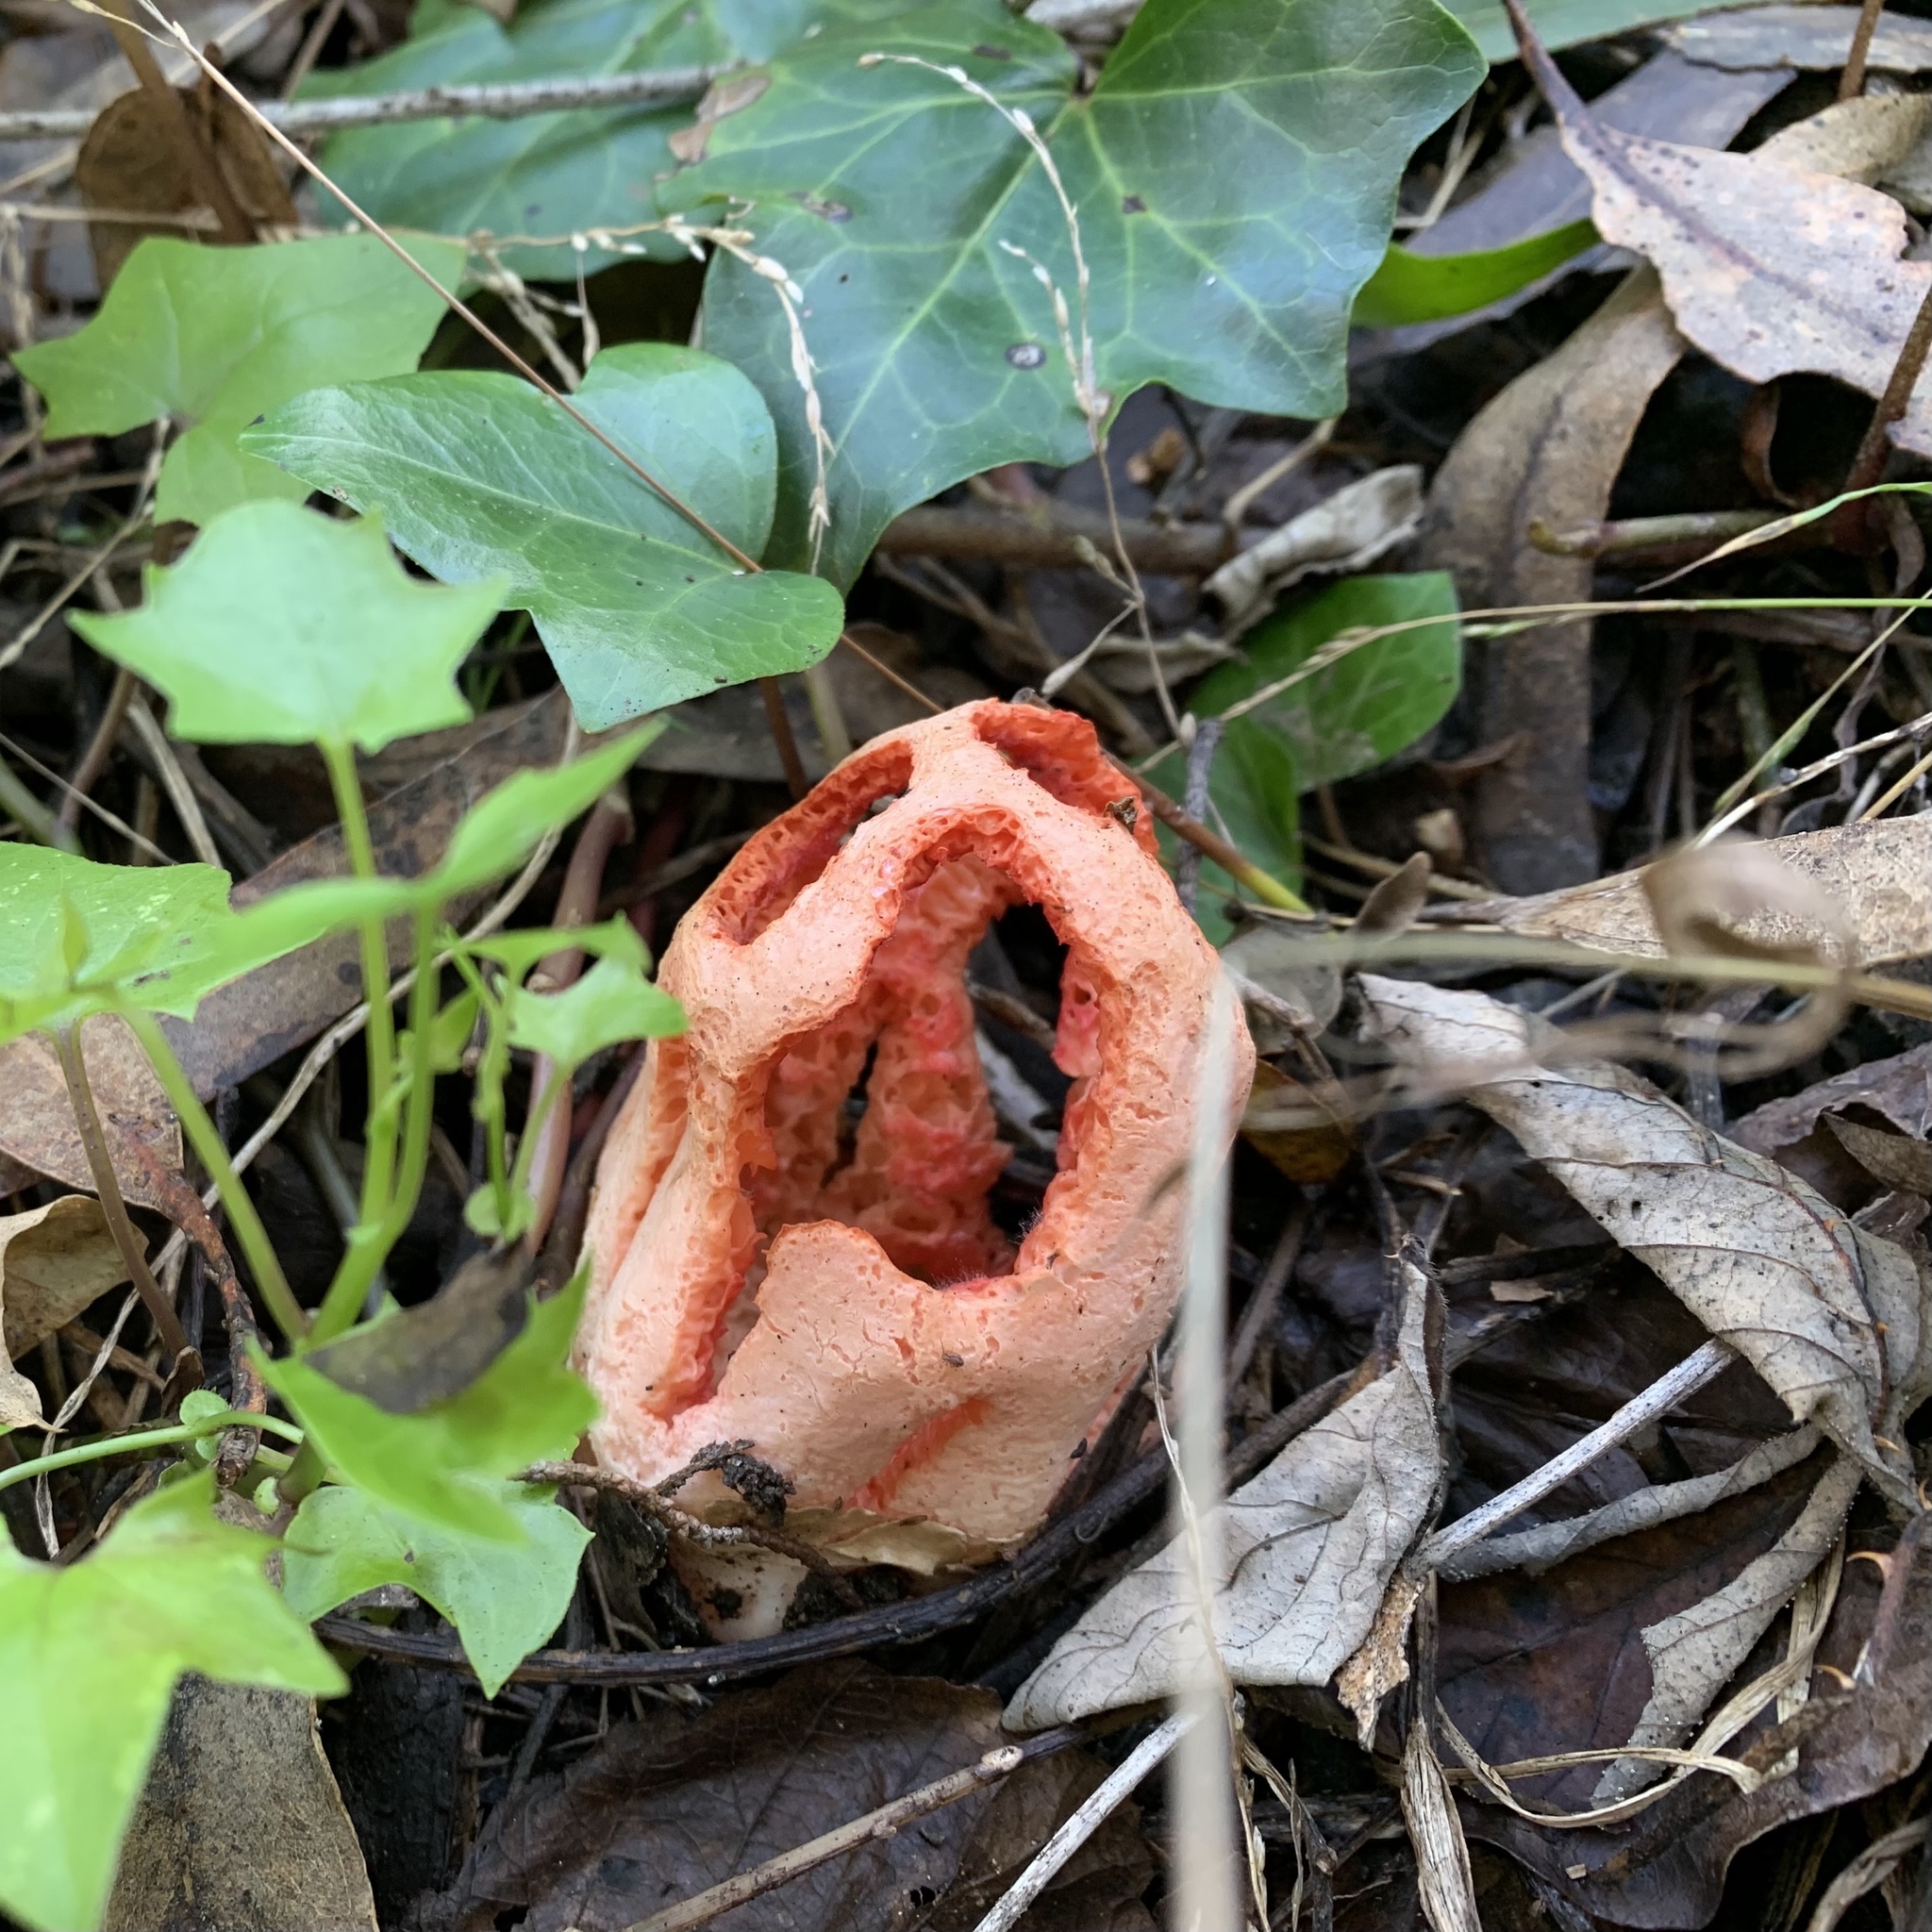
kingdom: Fungi
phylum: Basidiomycota
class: Agaricomycetes
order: Phallales
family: Phallaceae
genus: Clathrus
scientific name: Clathrus ruber
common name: Red cage
